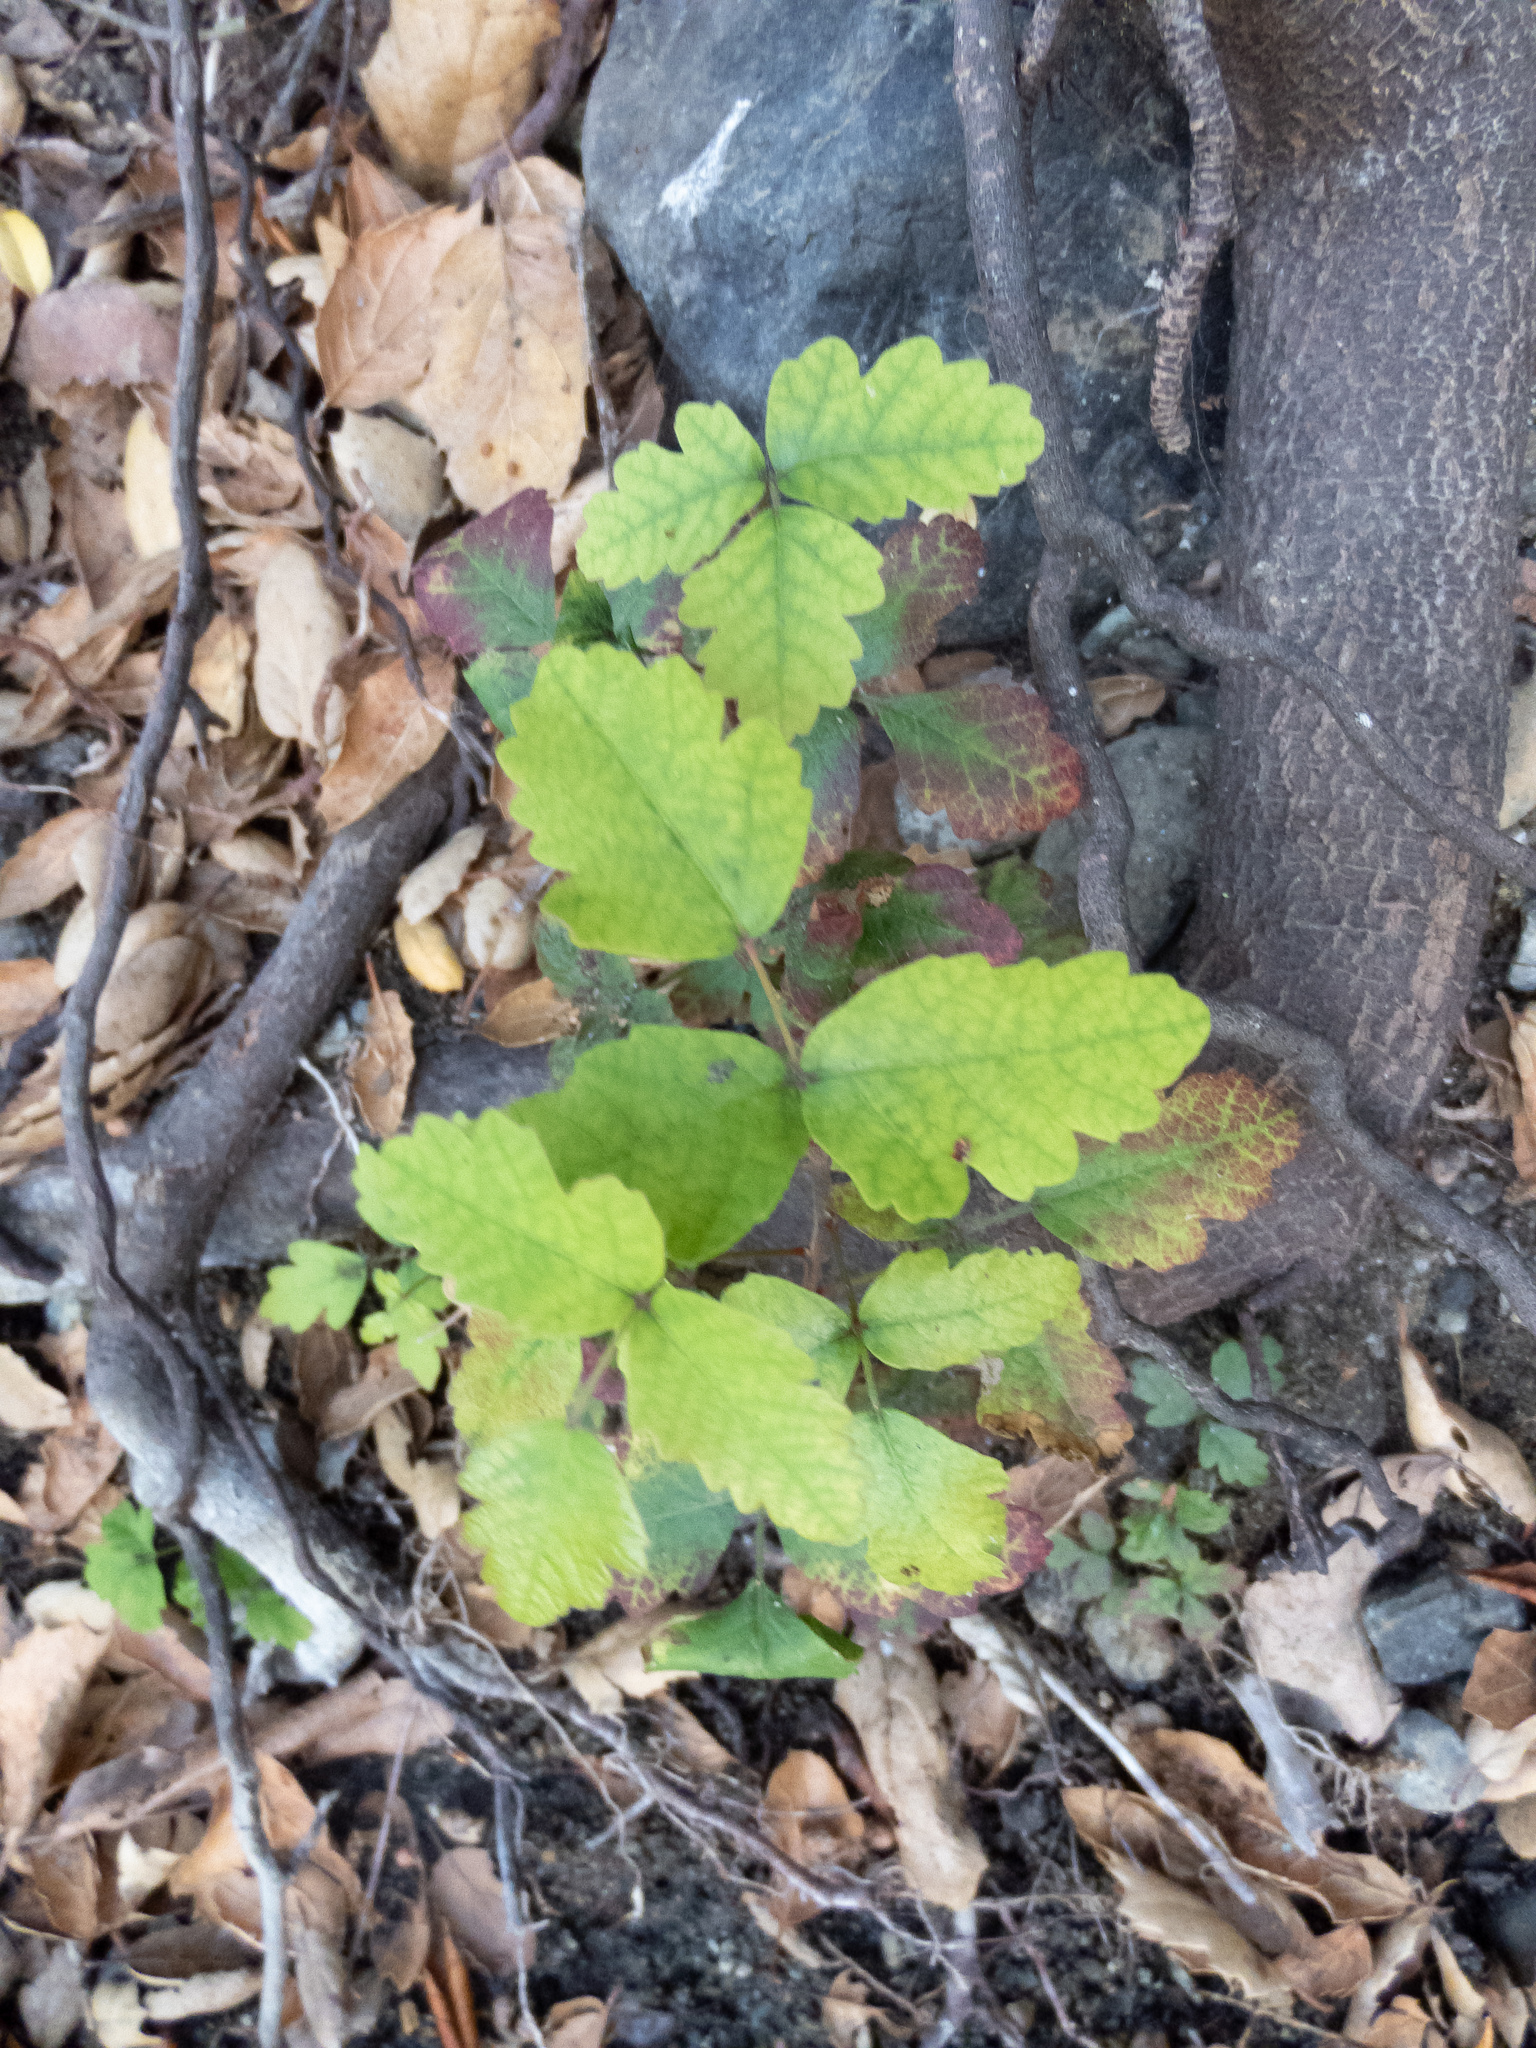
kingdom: Plantae
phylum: Tracheophyta
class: Magnoliopsida
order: Sapindales
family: Anacardiaceae
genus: Toxicodendron
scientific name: Toxicodendron diversilobum
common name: Pacific poison-oak
